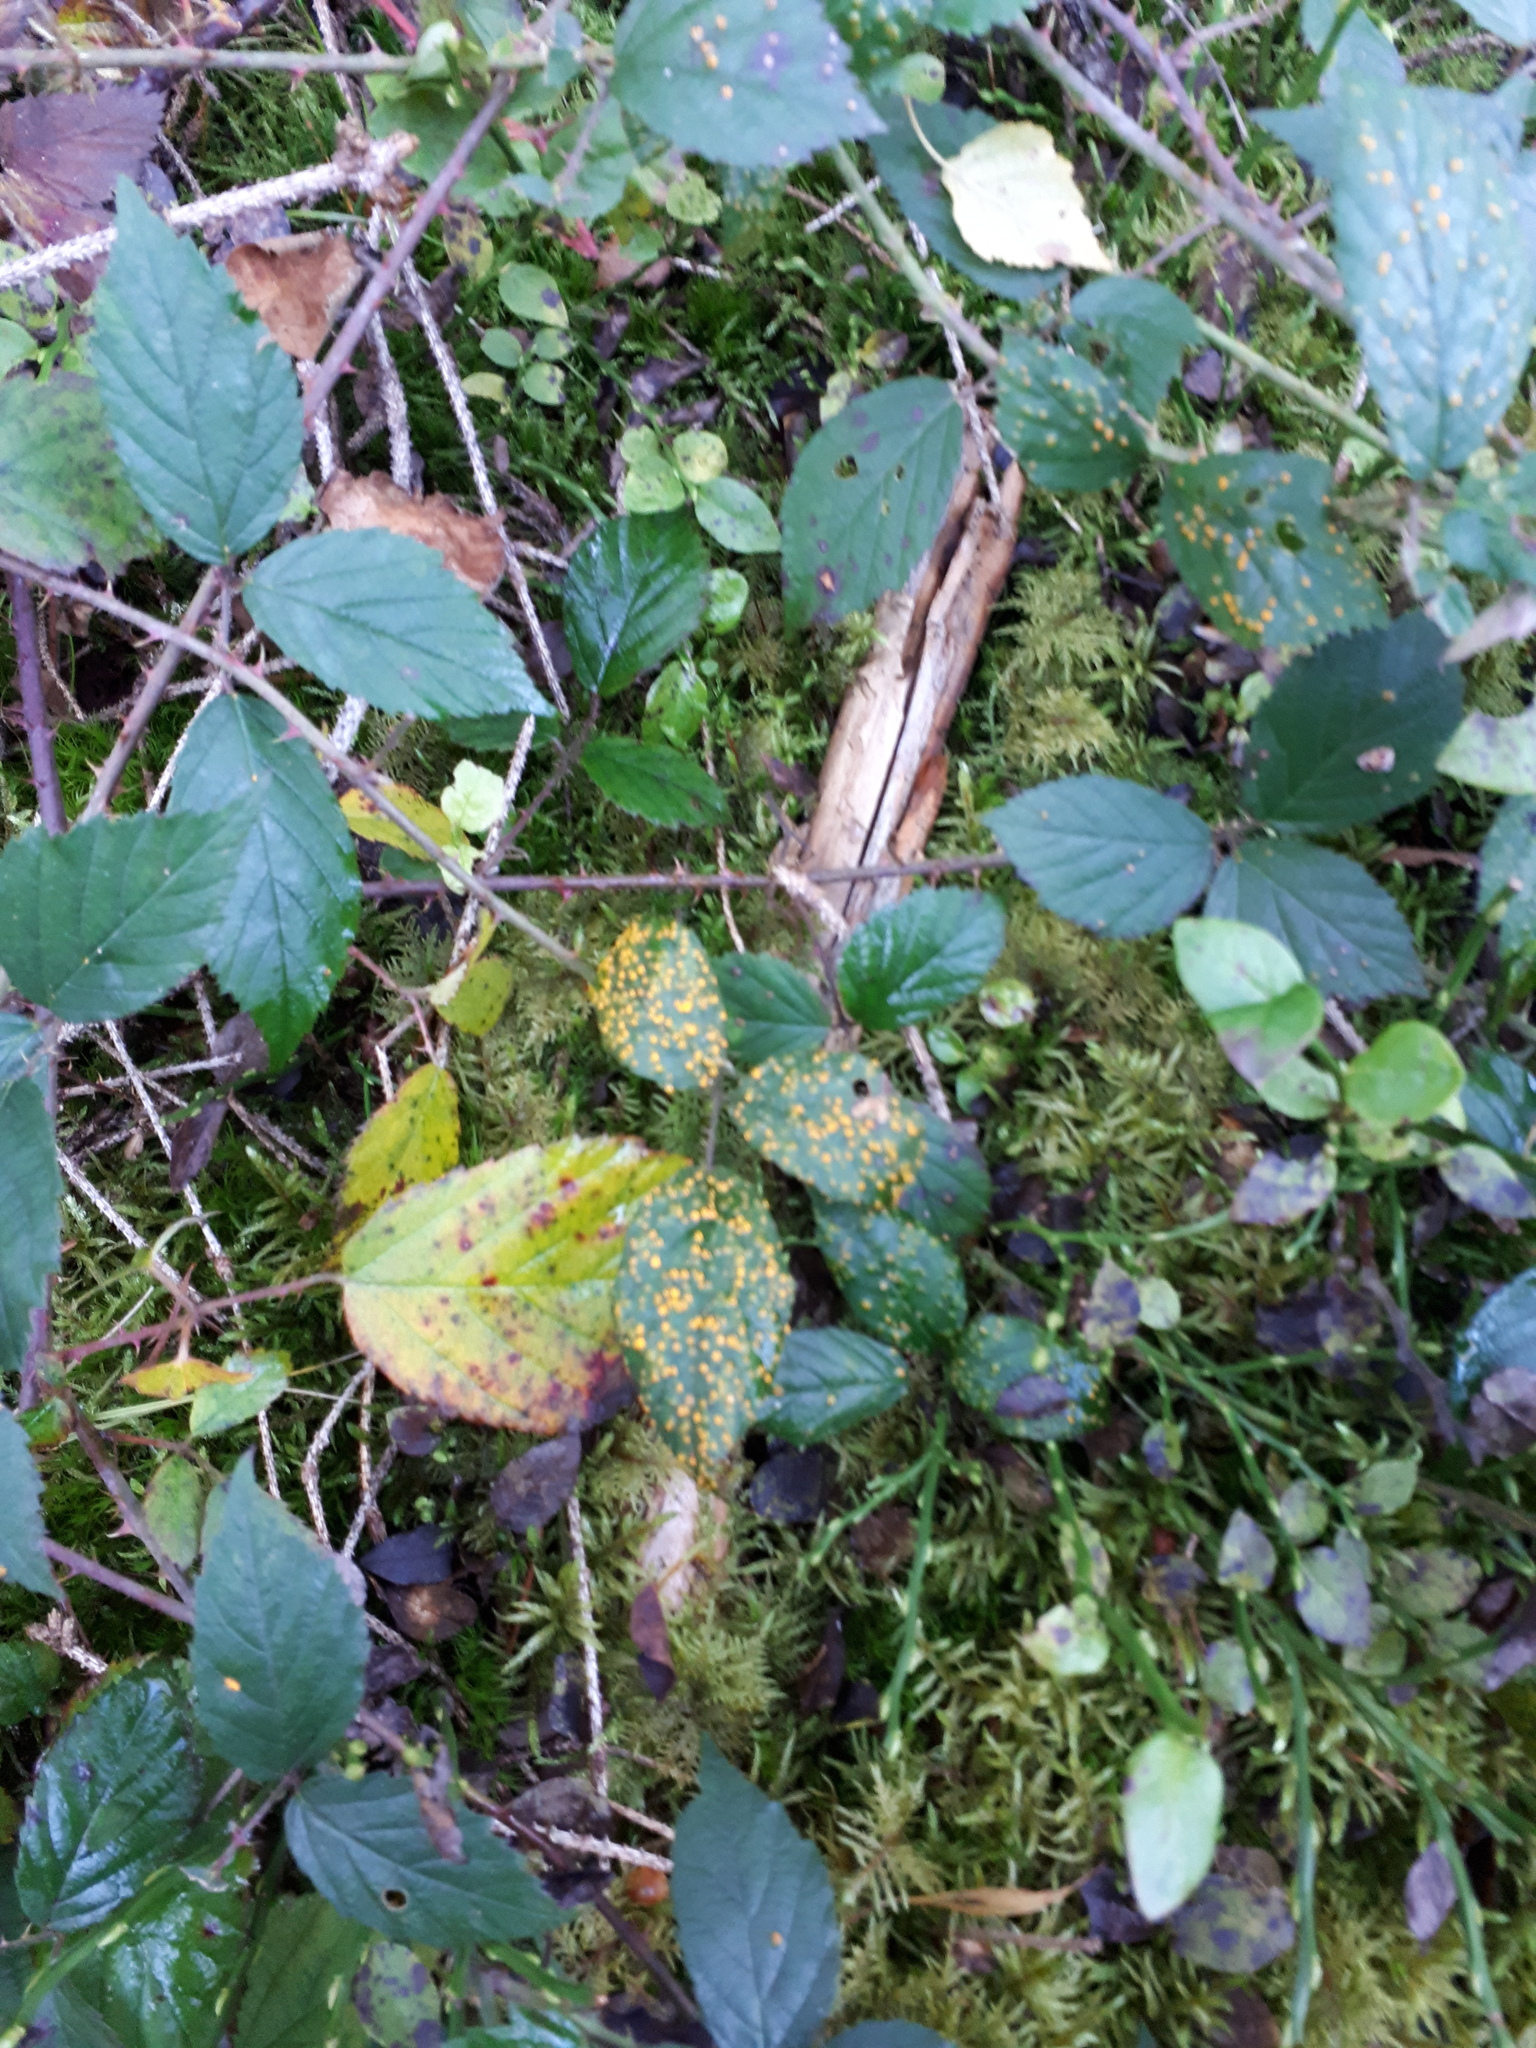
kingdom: Fungi
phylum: Basidiomycota
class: Pucciniomycetes
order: Pucciniales
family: Phragmidiaceae
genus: Kuehneola
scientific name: Kuehneola uredinis
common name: Bramble stem rust
